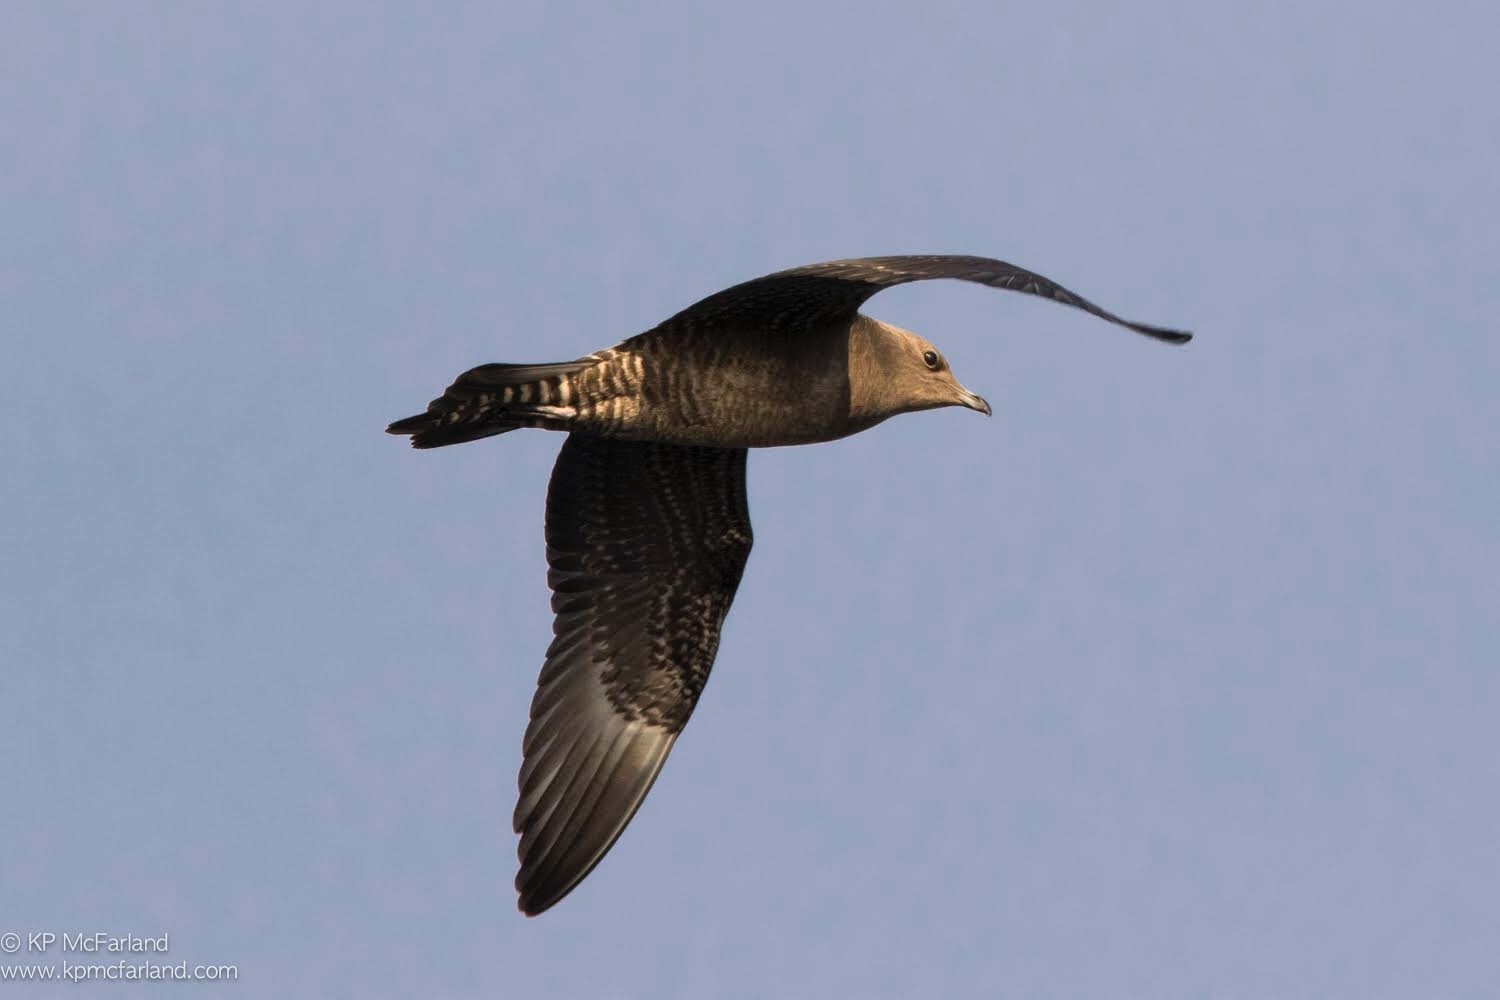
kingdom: Animalia
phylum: Chordata
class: Aves
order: Charadriiformes
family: Stercorariidae
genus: Stercorarius
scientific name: Stercorarius longicaudus
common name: Long-tailed jaeger
